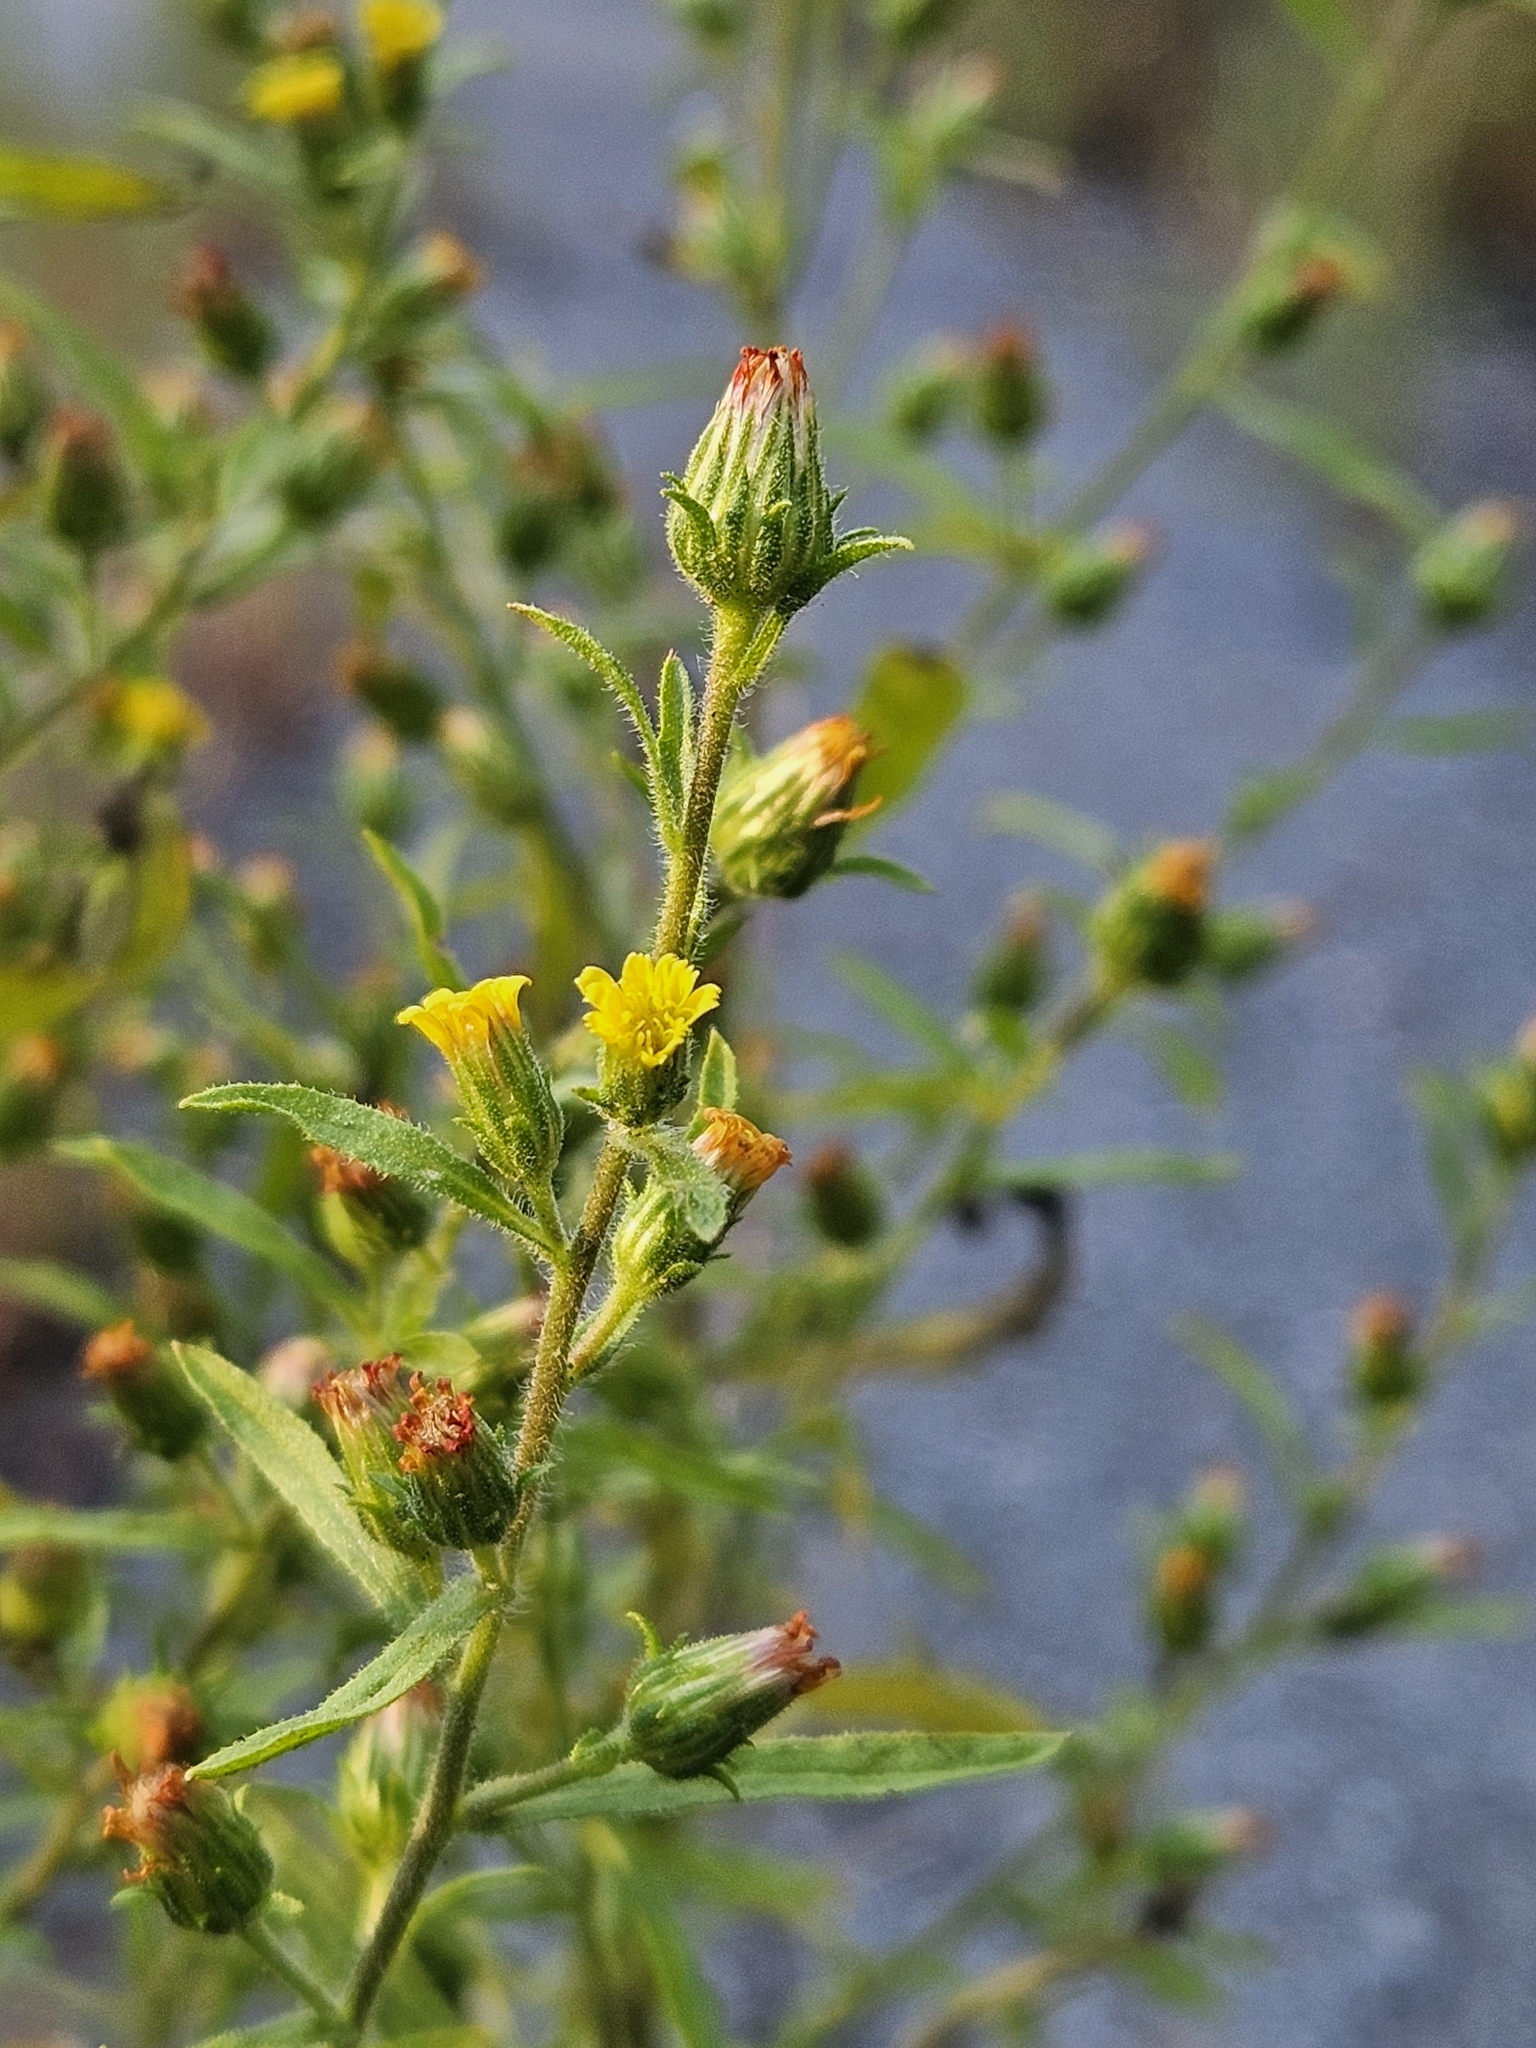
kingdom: Plantae
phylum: Tracheophyta
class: Magnoliopsida
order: Asterales
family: Asteraceae
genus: Dittrichia
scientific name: Dittrichia graveolens
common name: Stinking fleabane
